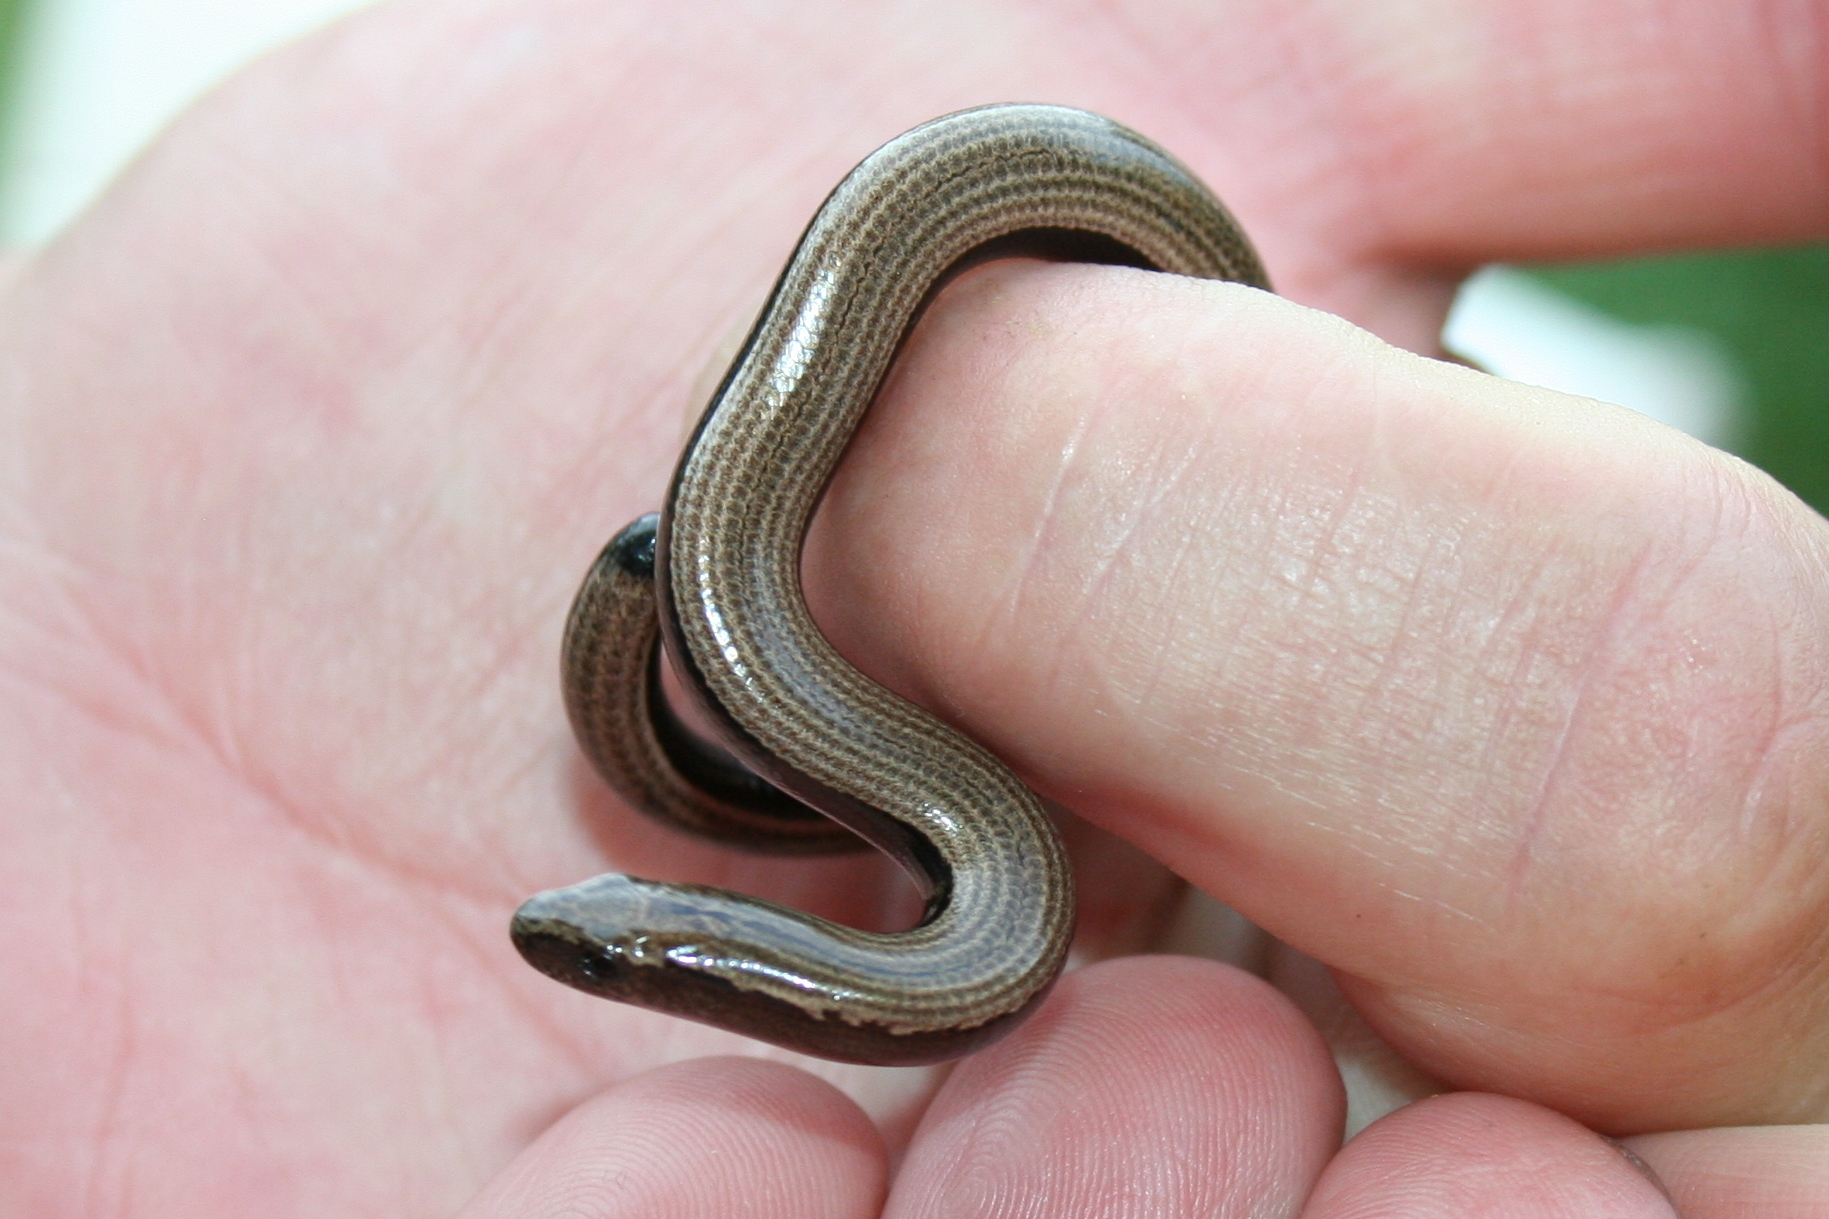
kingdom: Animalia
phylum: Chordata
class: Squamata
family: Anguidae
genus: Anguis
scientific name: Anguis veronensis
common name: Italian slow worm
